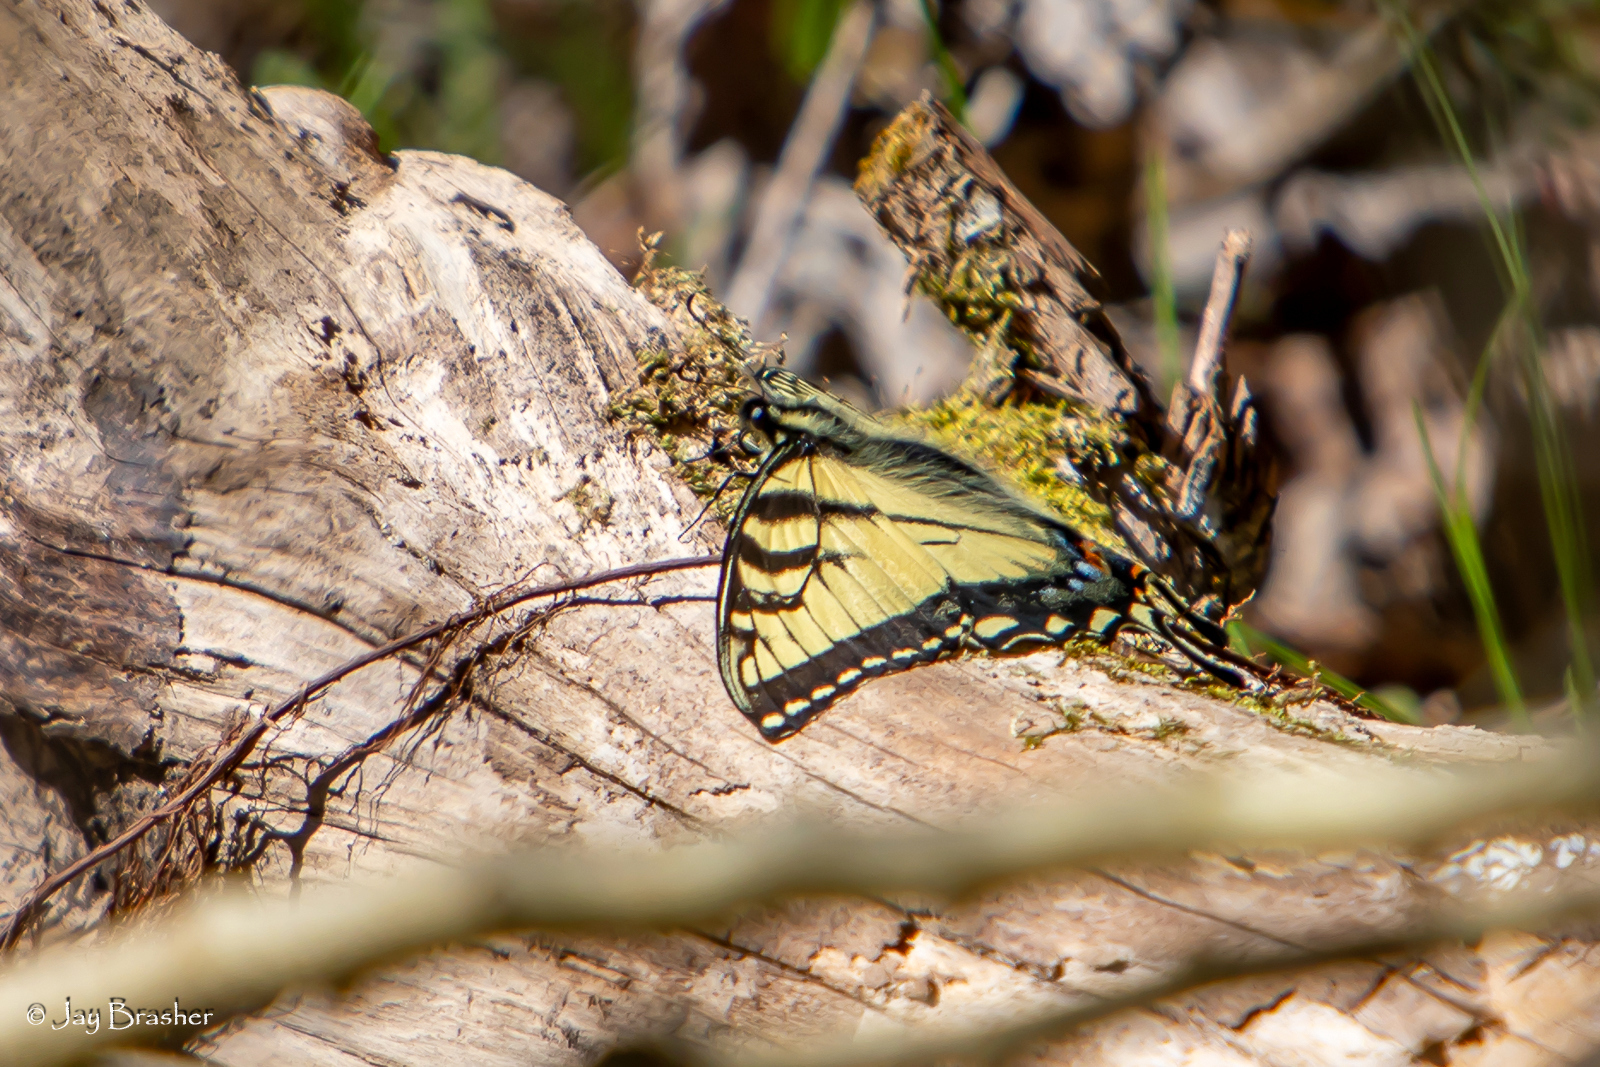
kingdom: Animalia
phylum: Arthropoda
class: Insecta
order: Lepidoptera
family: Papilionidae
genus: Papilio
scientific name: Papilio glaucus
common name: Tiger swallowtail
